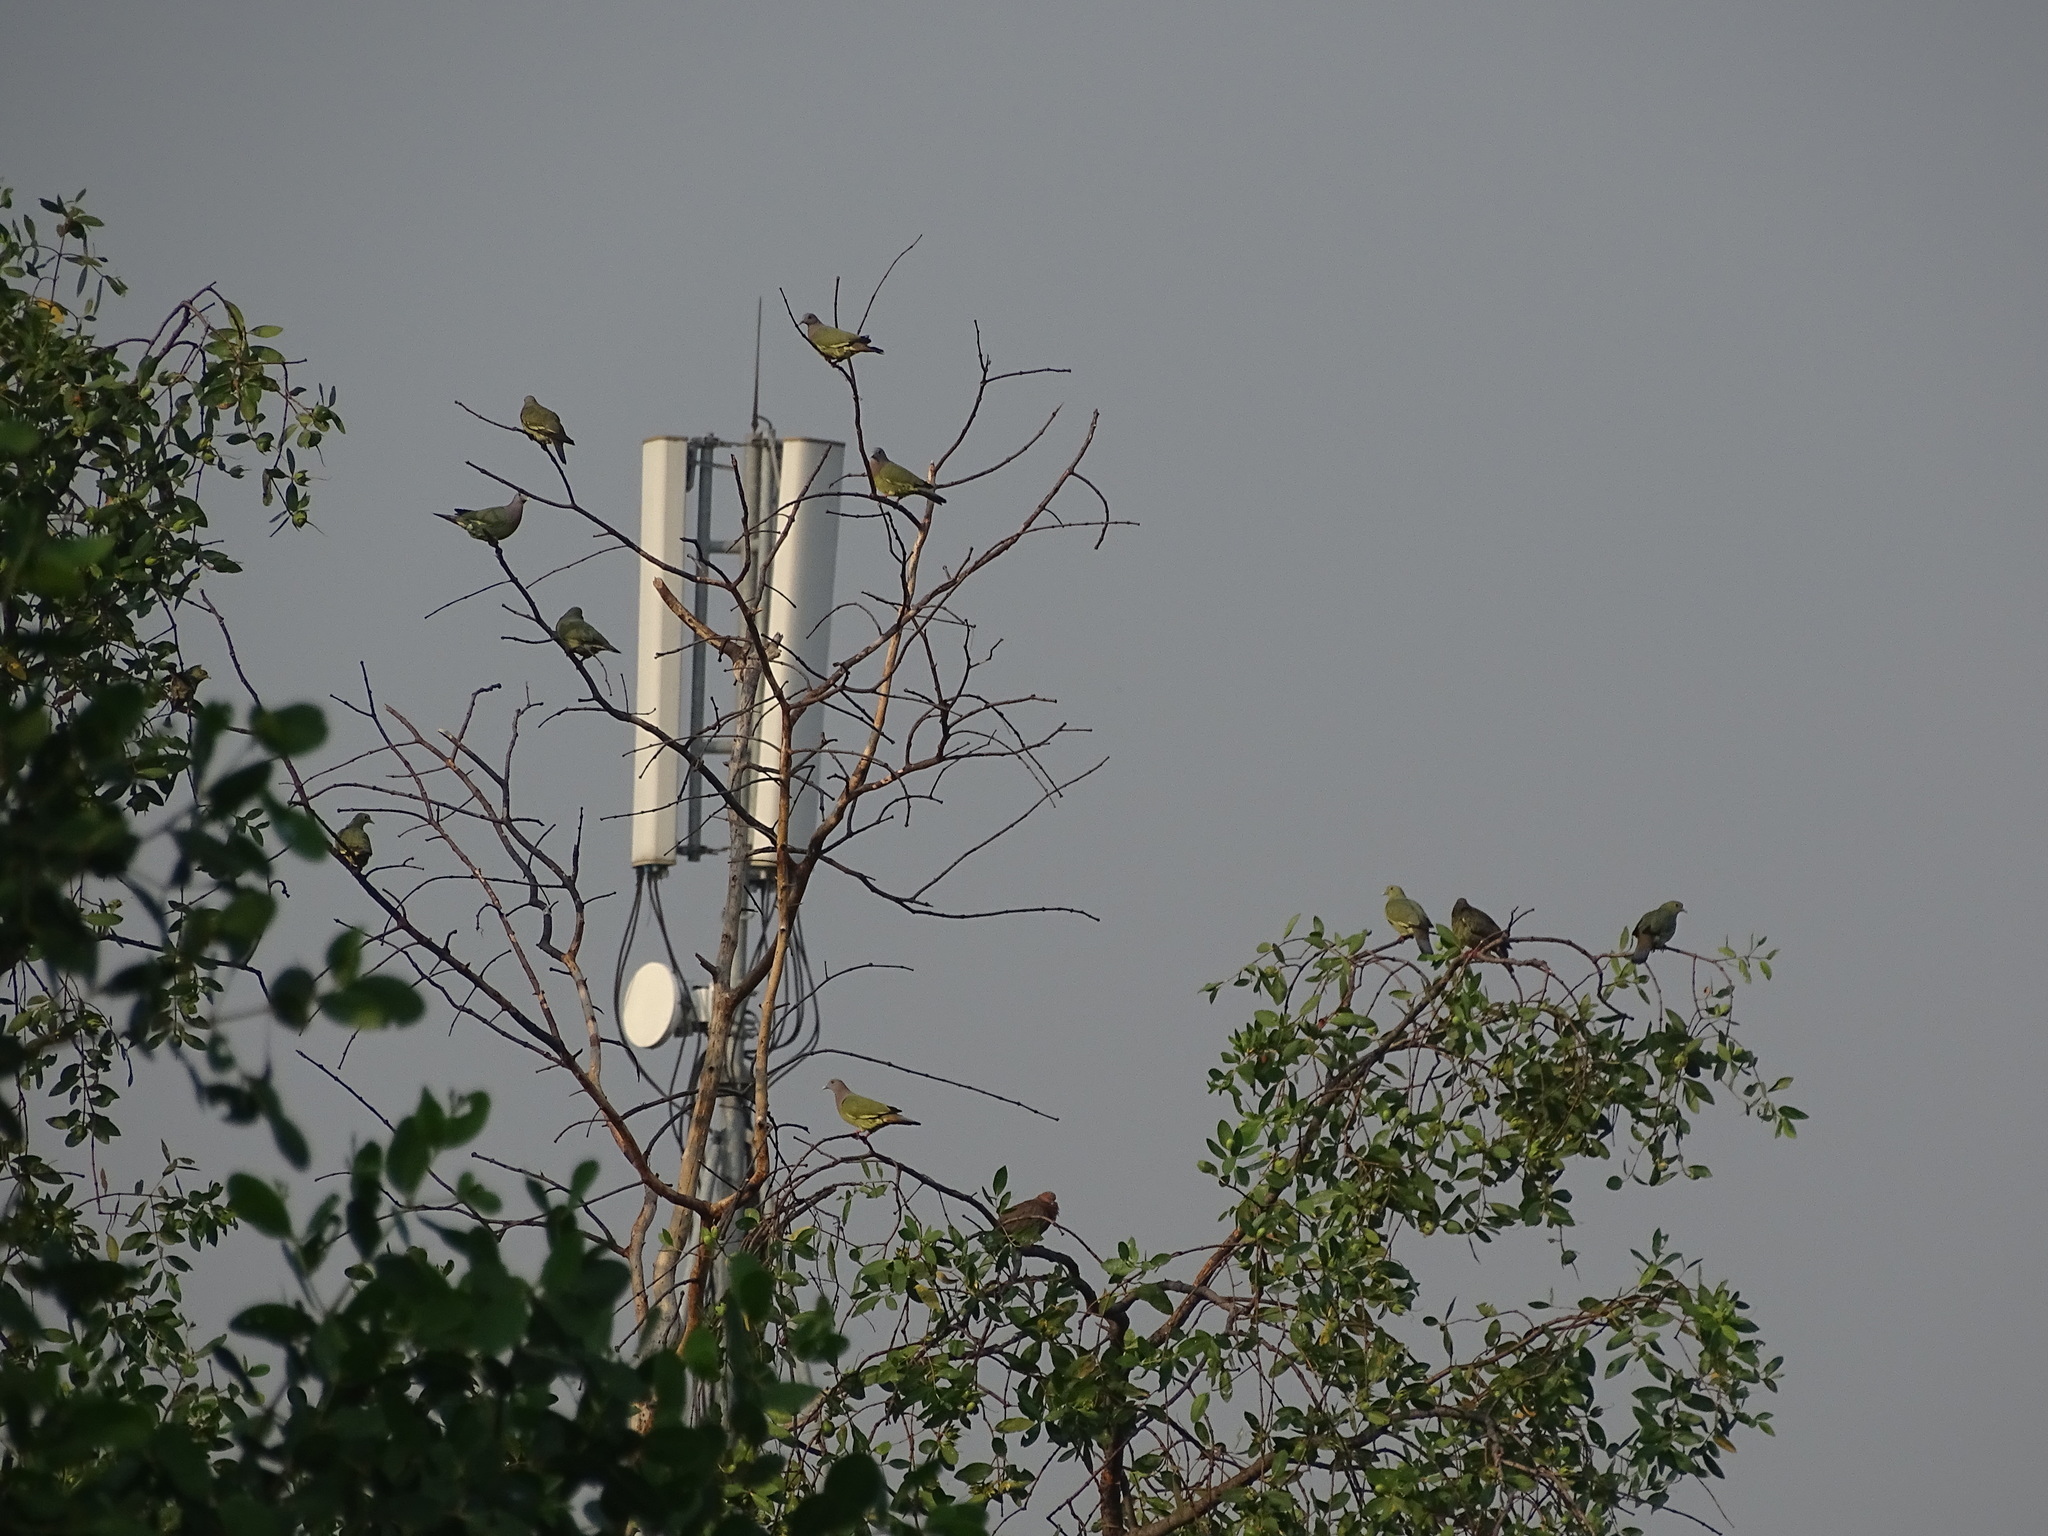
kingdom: Animalia
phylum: Chordata
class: Aves
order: Columbiformes
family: Columbidae
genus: Streptopelia
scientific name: Streptopelia bitorquata
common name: Island collared dove
